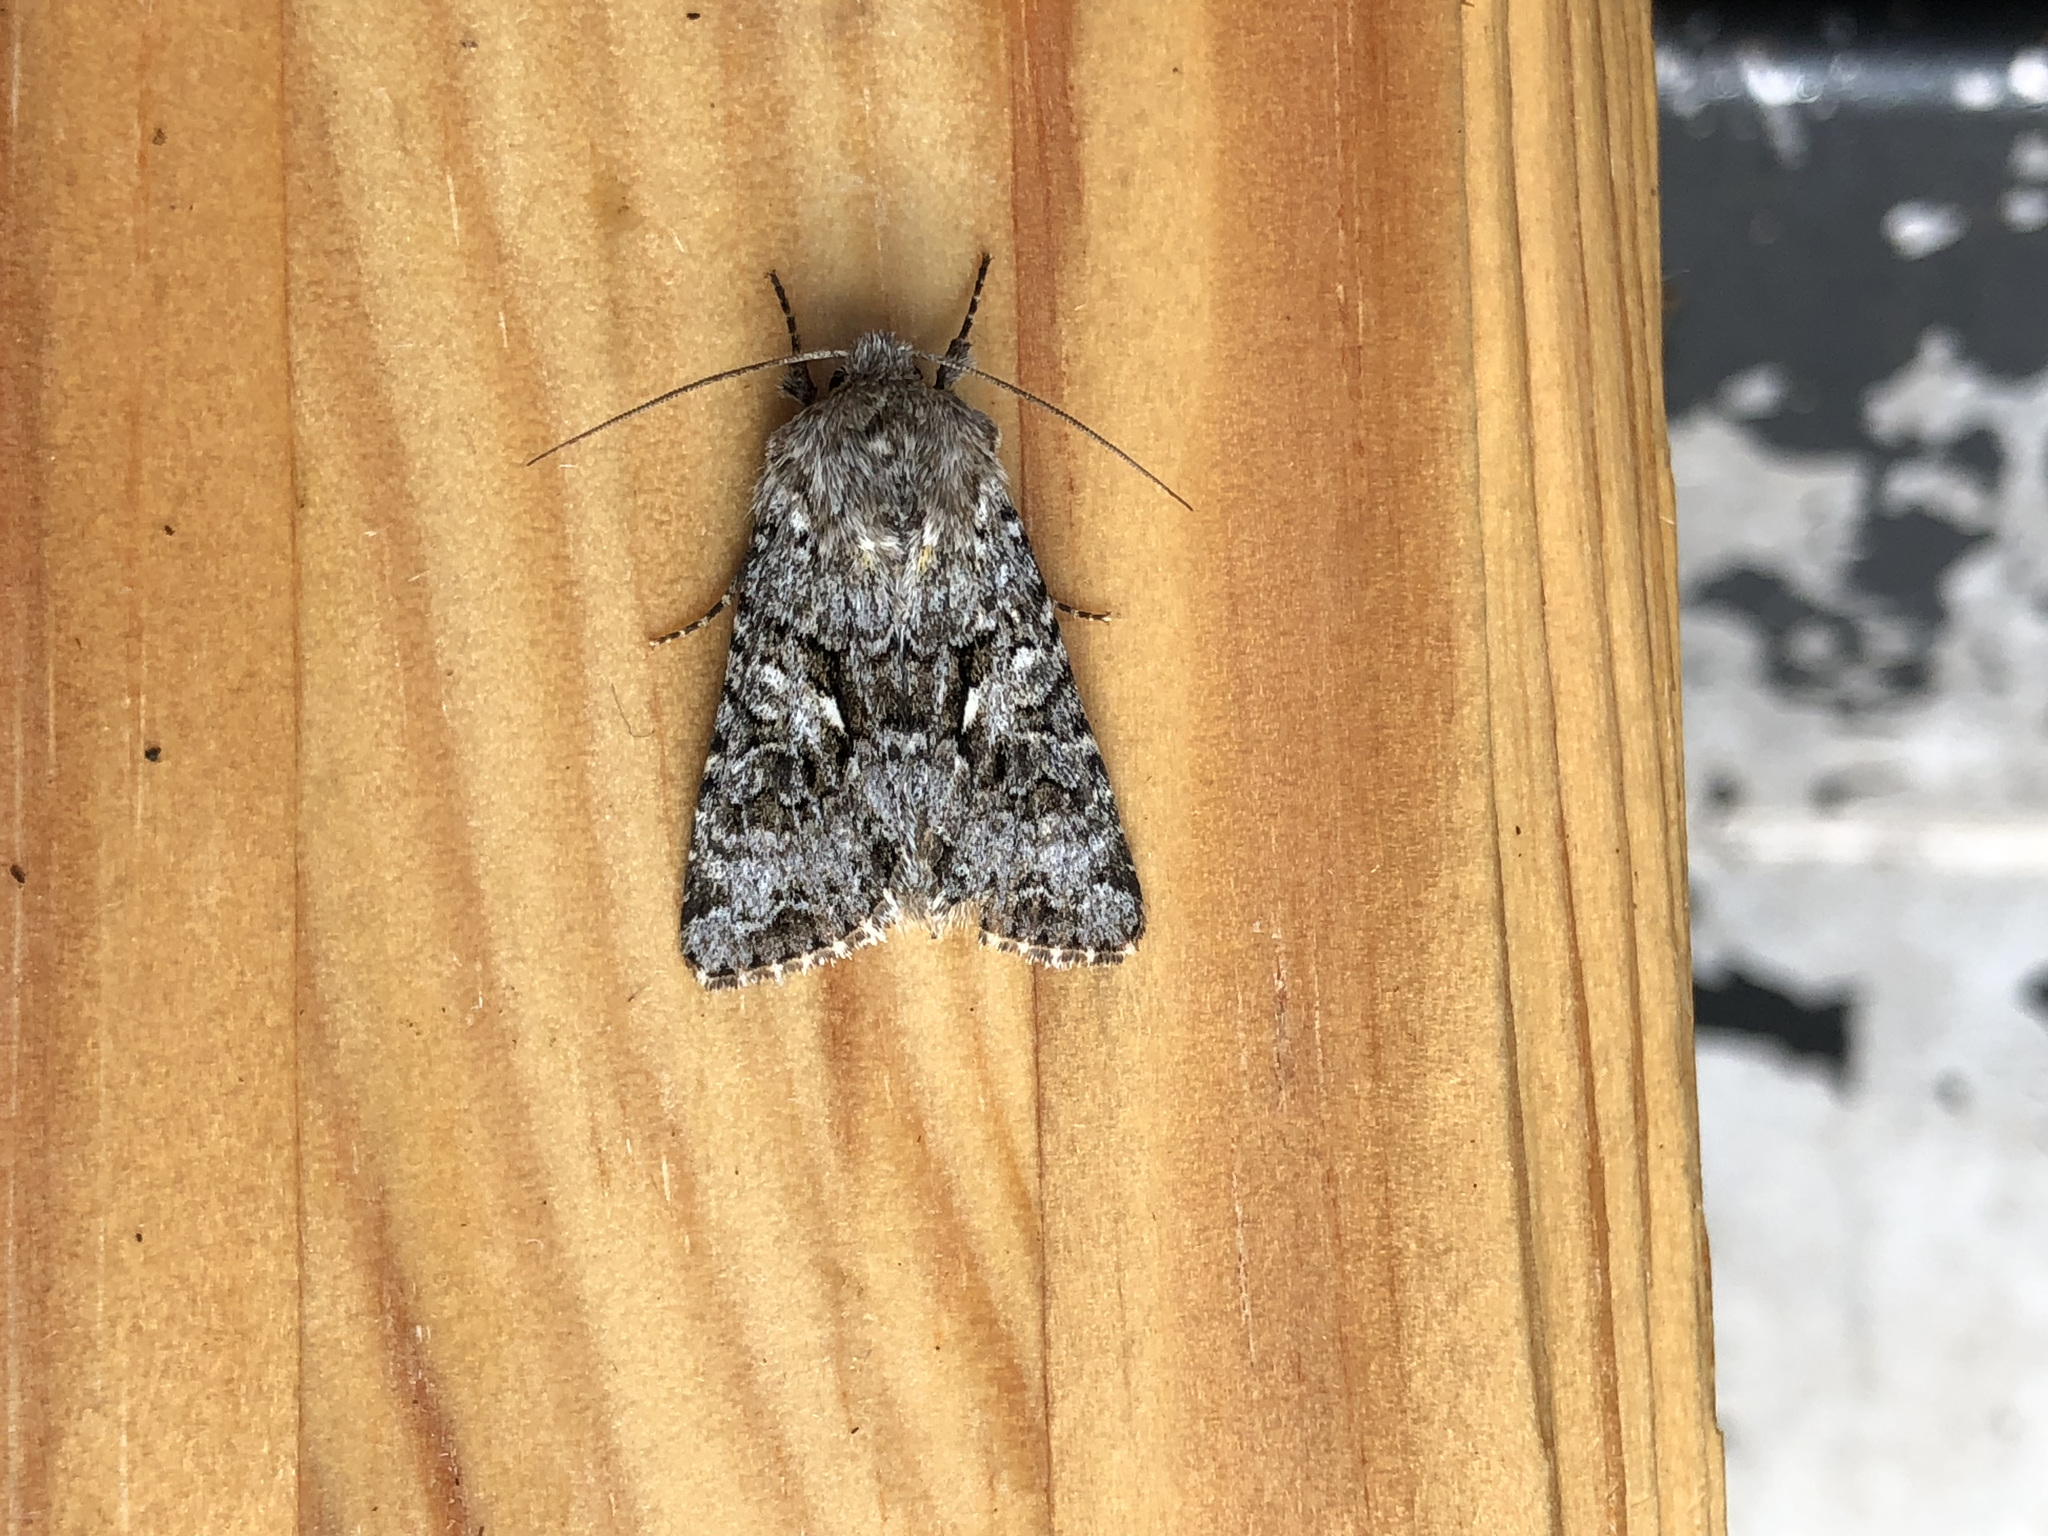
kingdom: Animalia
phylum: Arthropoda
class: Insecta
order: Lepidoptera
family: Noctuidae
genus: Hada
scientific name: Hada plebeja
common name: Shears
